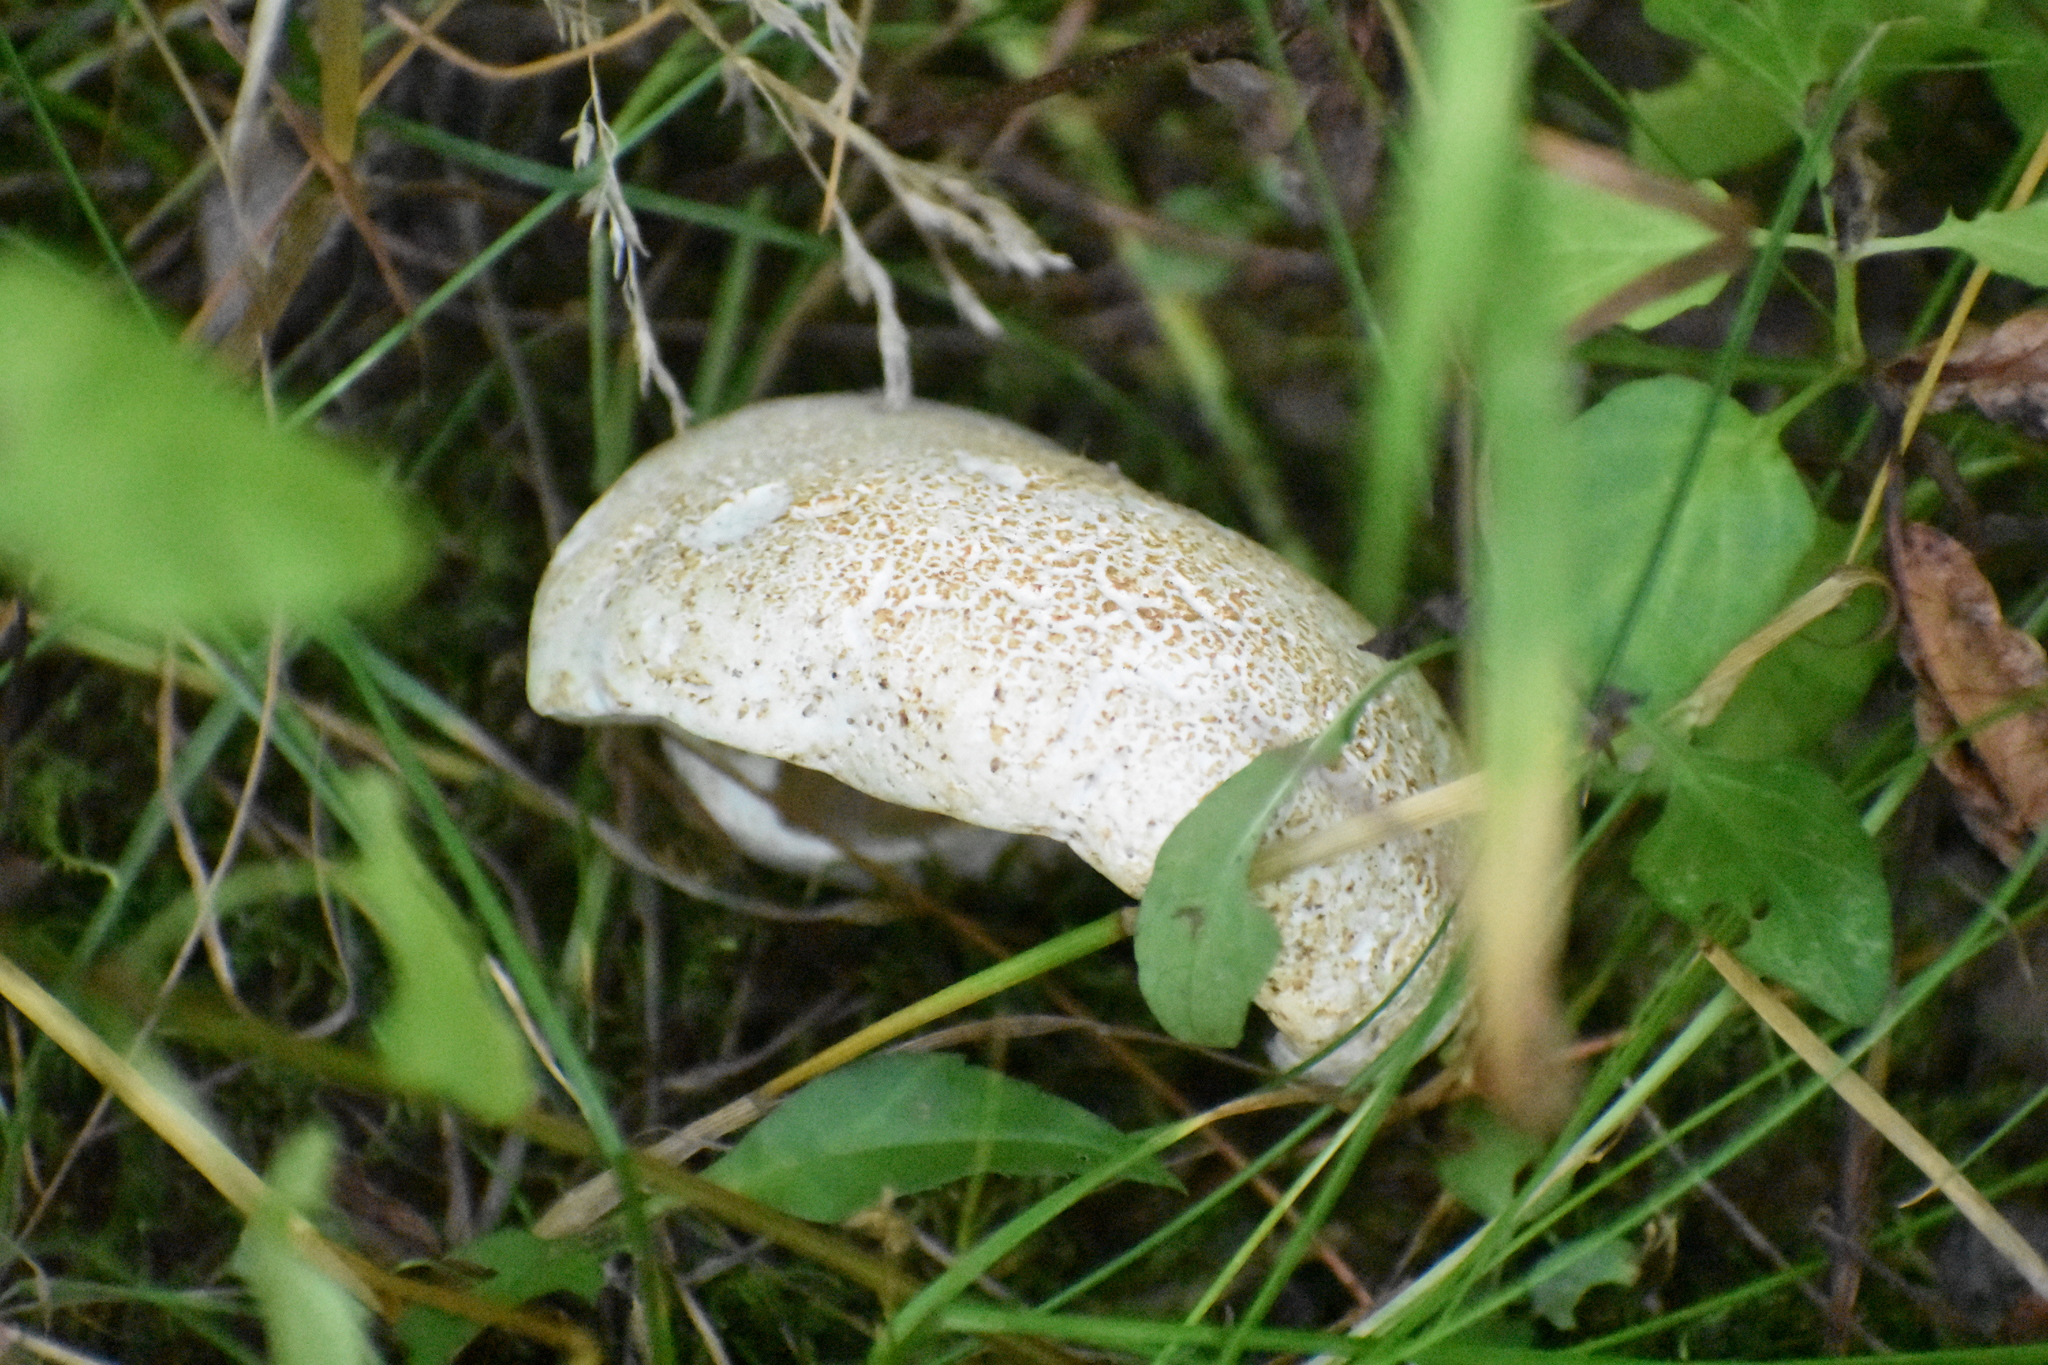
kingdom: Fungi
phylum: Basidiomycota
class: Agaricomycetes
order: Gloeophyllales
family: Gloeophyllaceae
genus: Neolentinus
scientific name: Neolentinus lepideus
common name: Scaly sawgill
